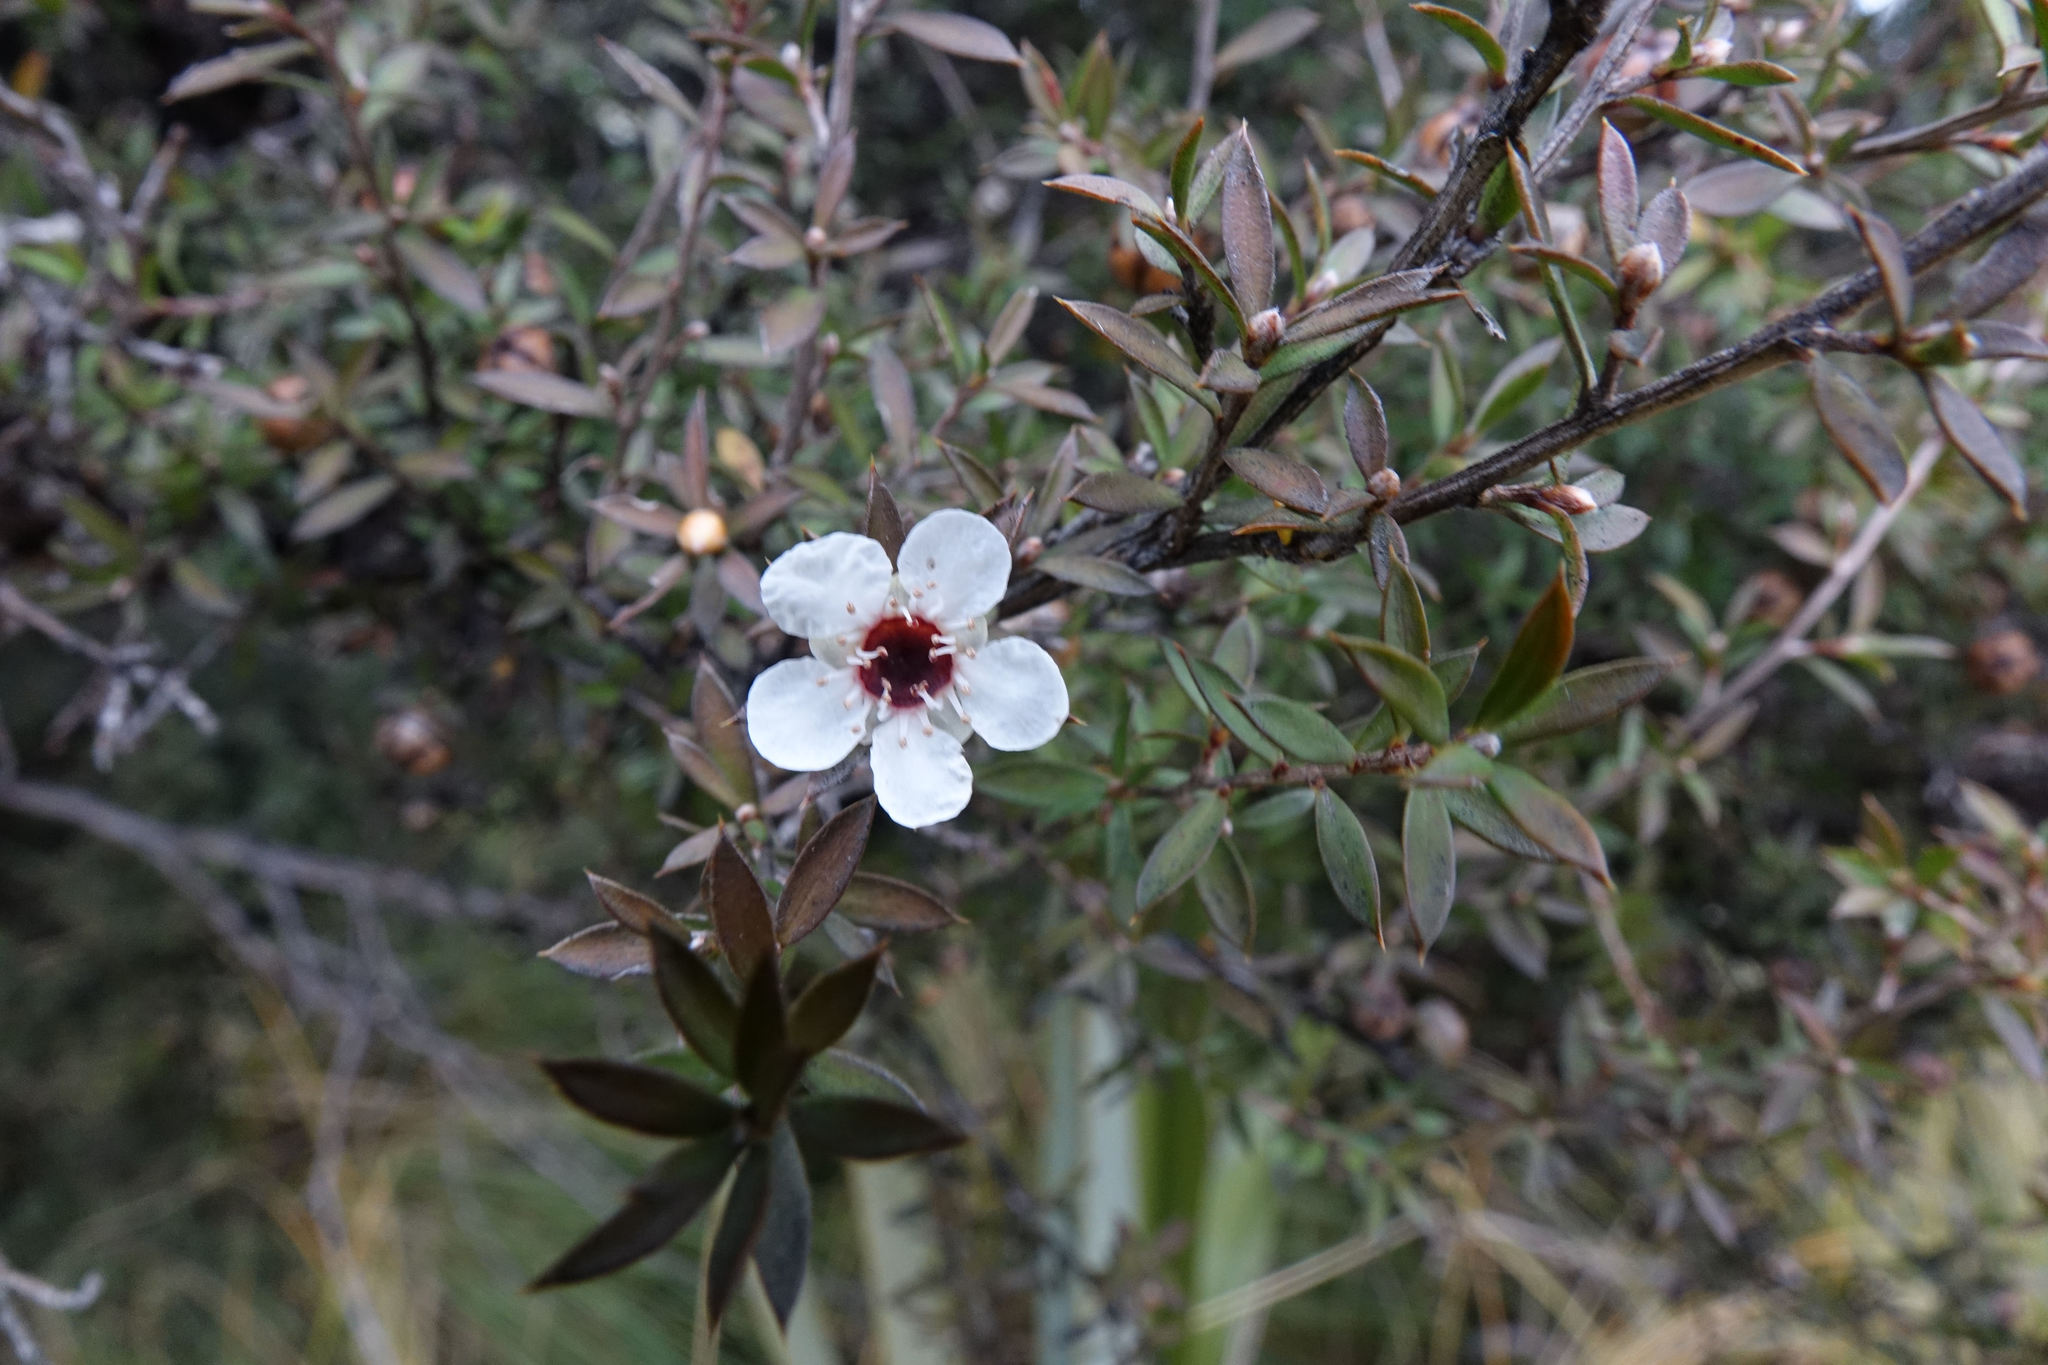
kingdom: Plantae
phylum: Tracheophyta
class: Magnoliopsida
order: Myrtales
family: Myrtaceae
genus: Leptospermum
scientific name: Leptospermum scoparium
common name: Broom tea-tree
